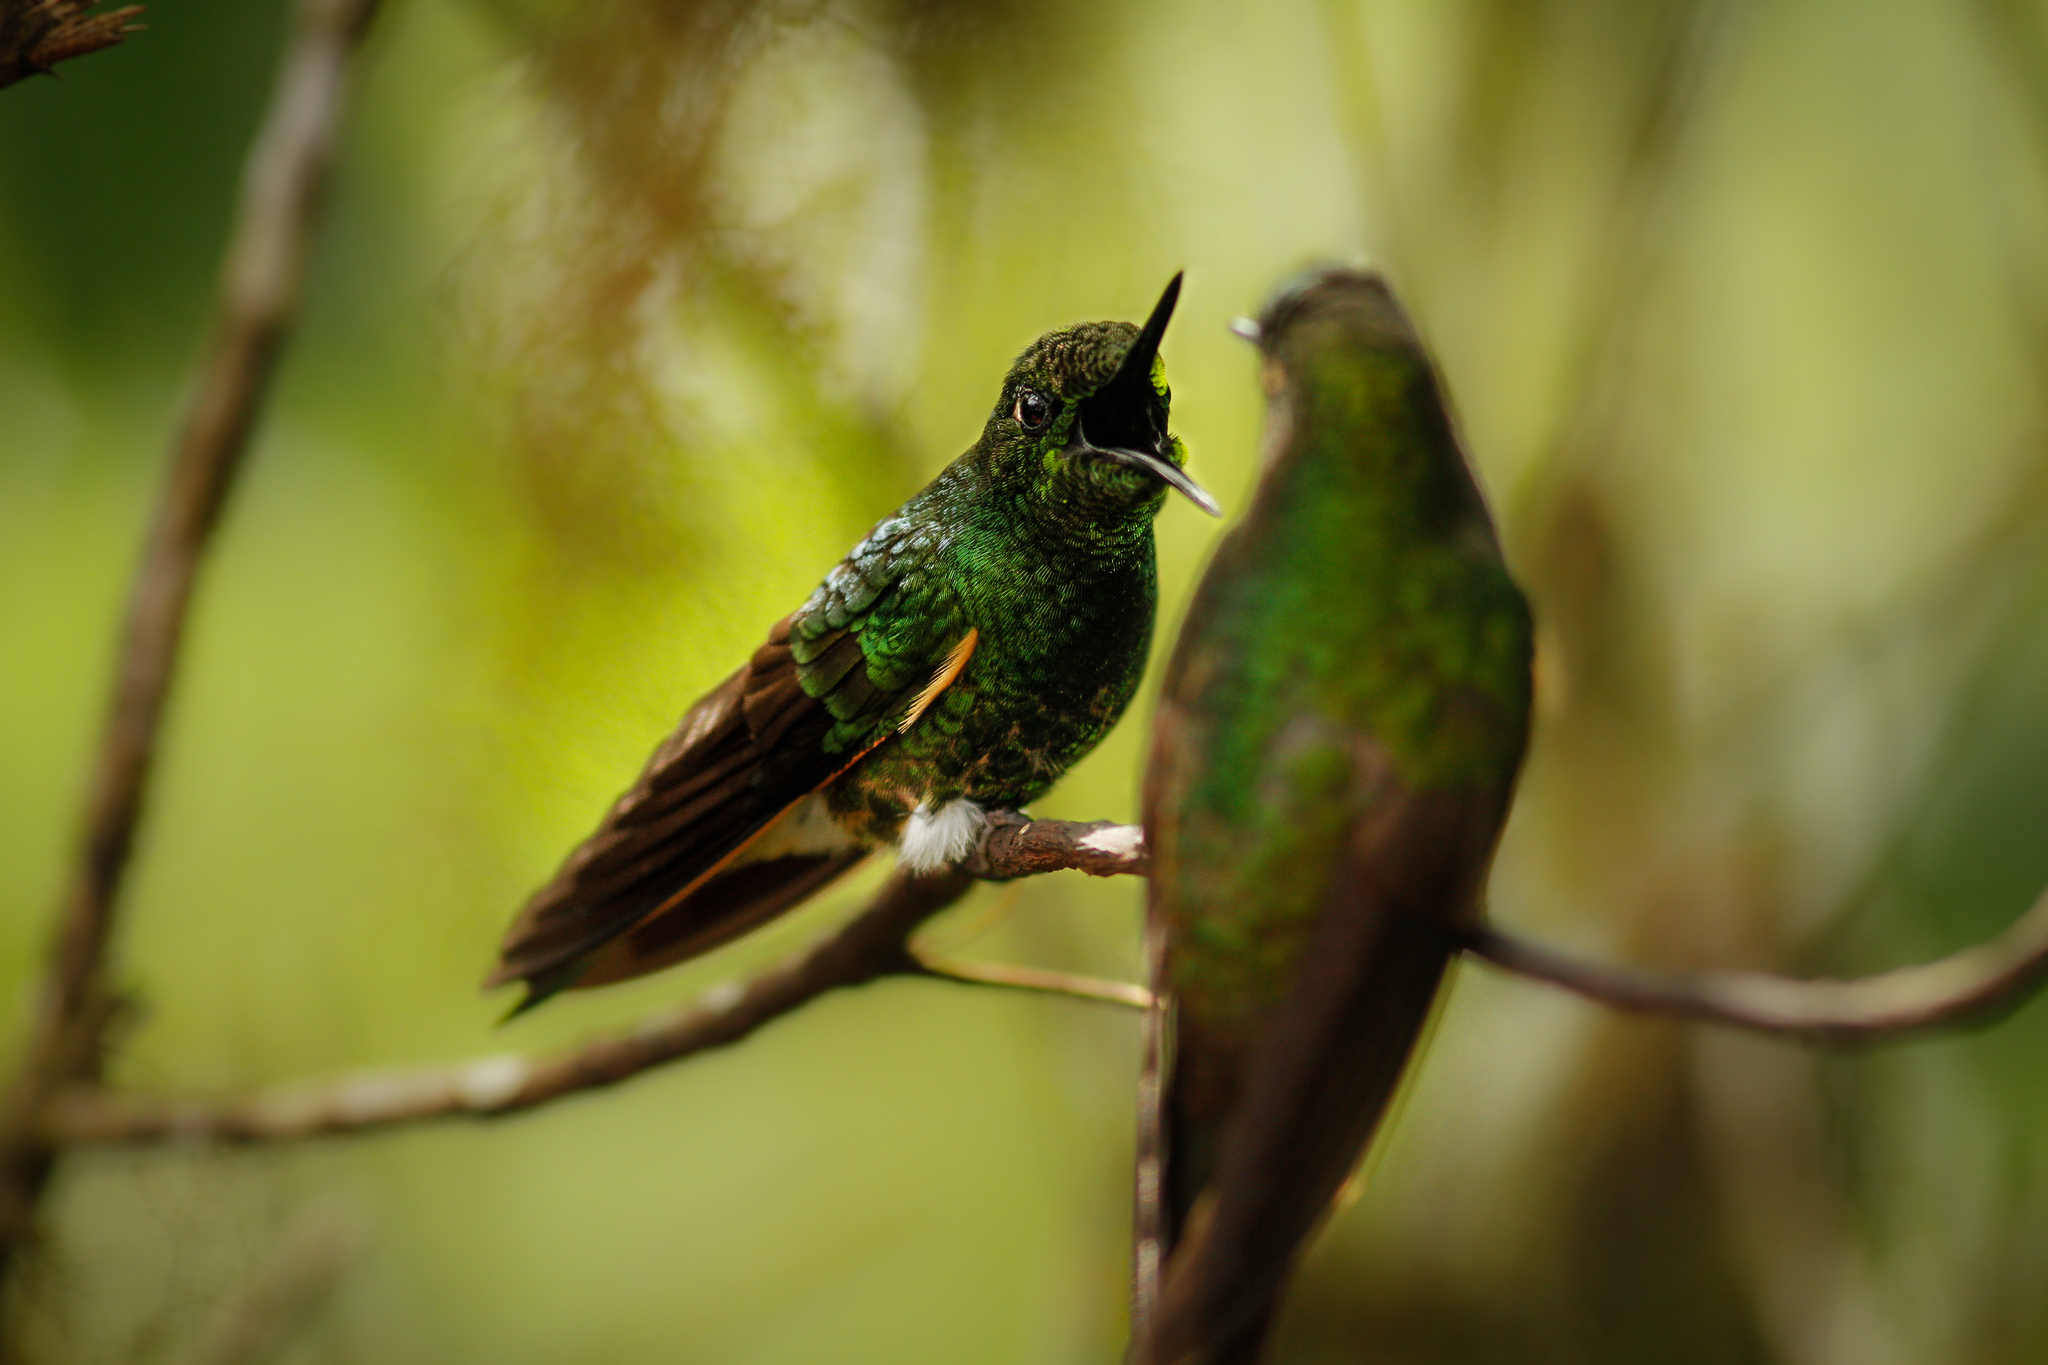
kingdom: Animalia
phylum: Chordata
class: Aves
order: Apodiformes
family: Trochilidae
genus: Boissonneaua
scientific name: Boissonneaua flavescens
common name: Buff-tailed coronet
